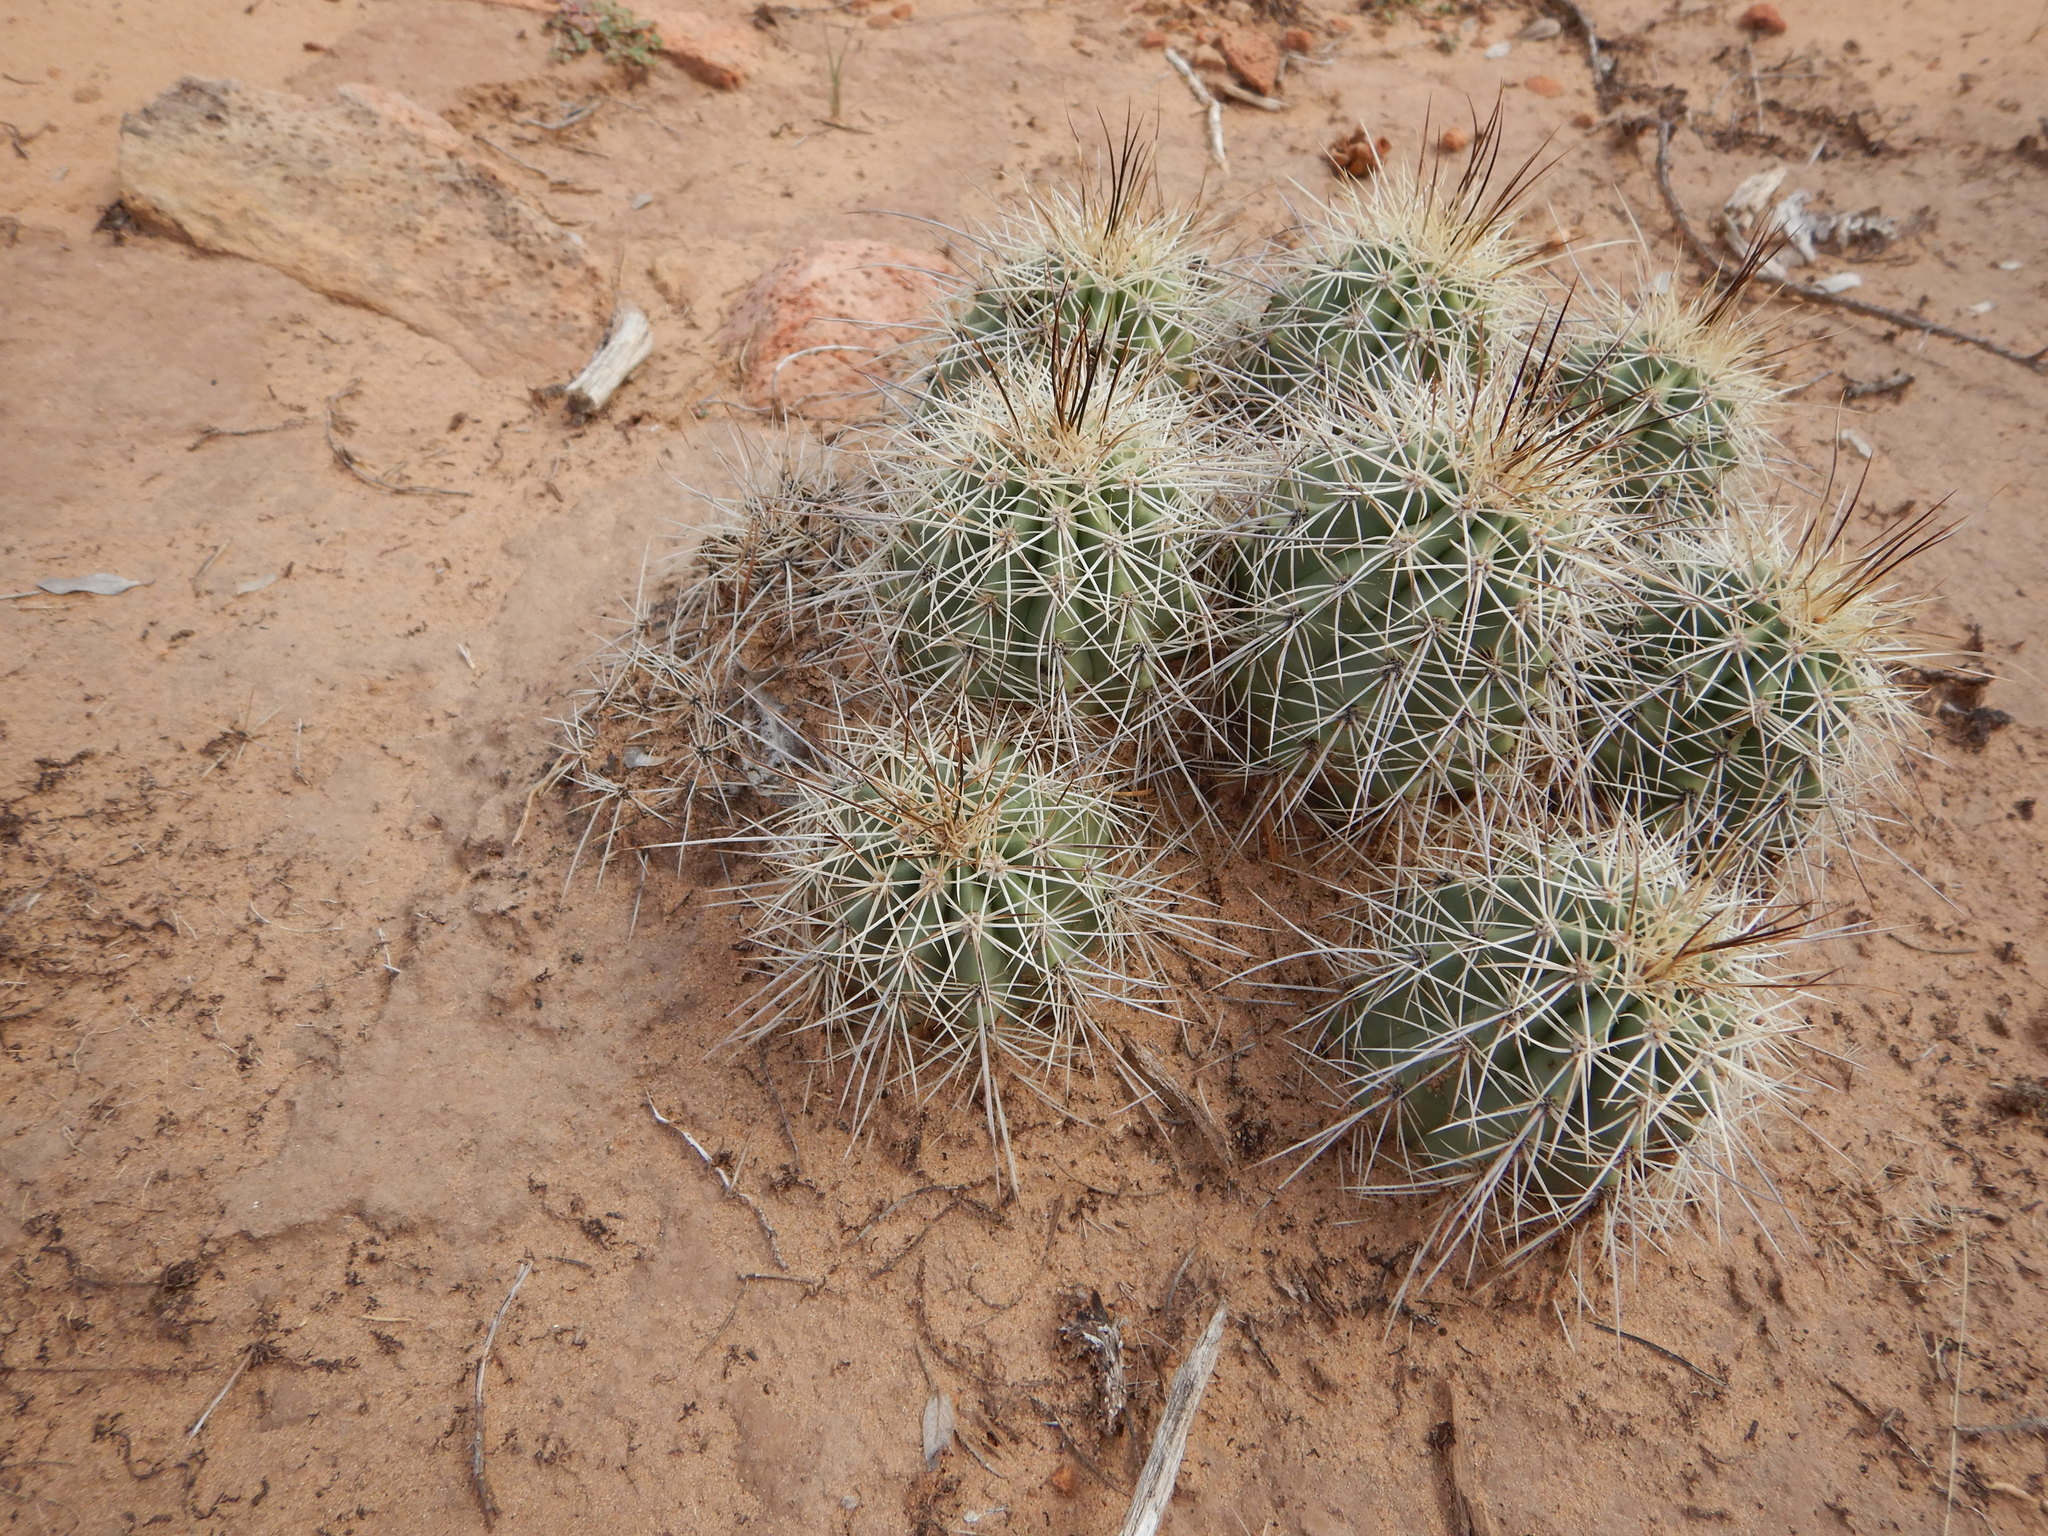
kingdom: Plantae
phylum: Tracheophyta
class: Magnoliopsida
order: Caryophyllales
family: Cactaceae
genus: Echinocereus
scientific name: Echinocereus coccineus
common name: Scarlet hedgehog cactus
